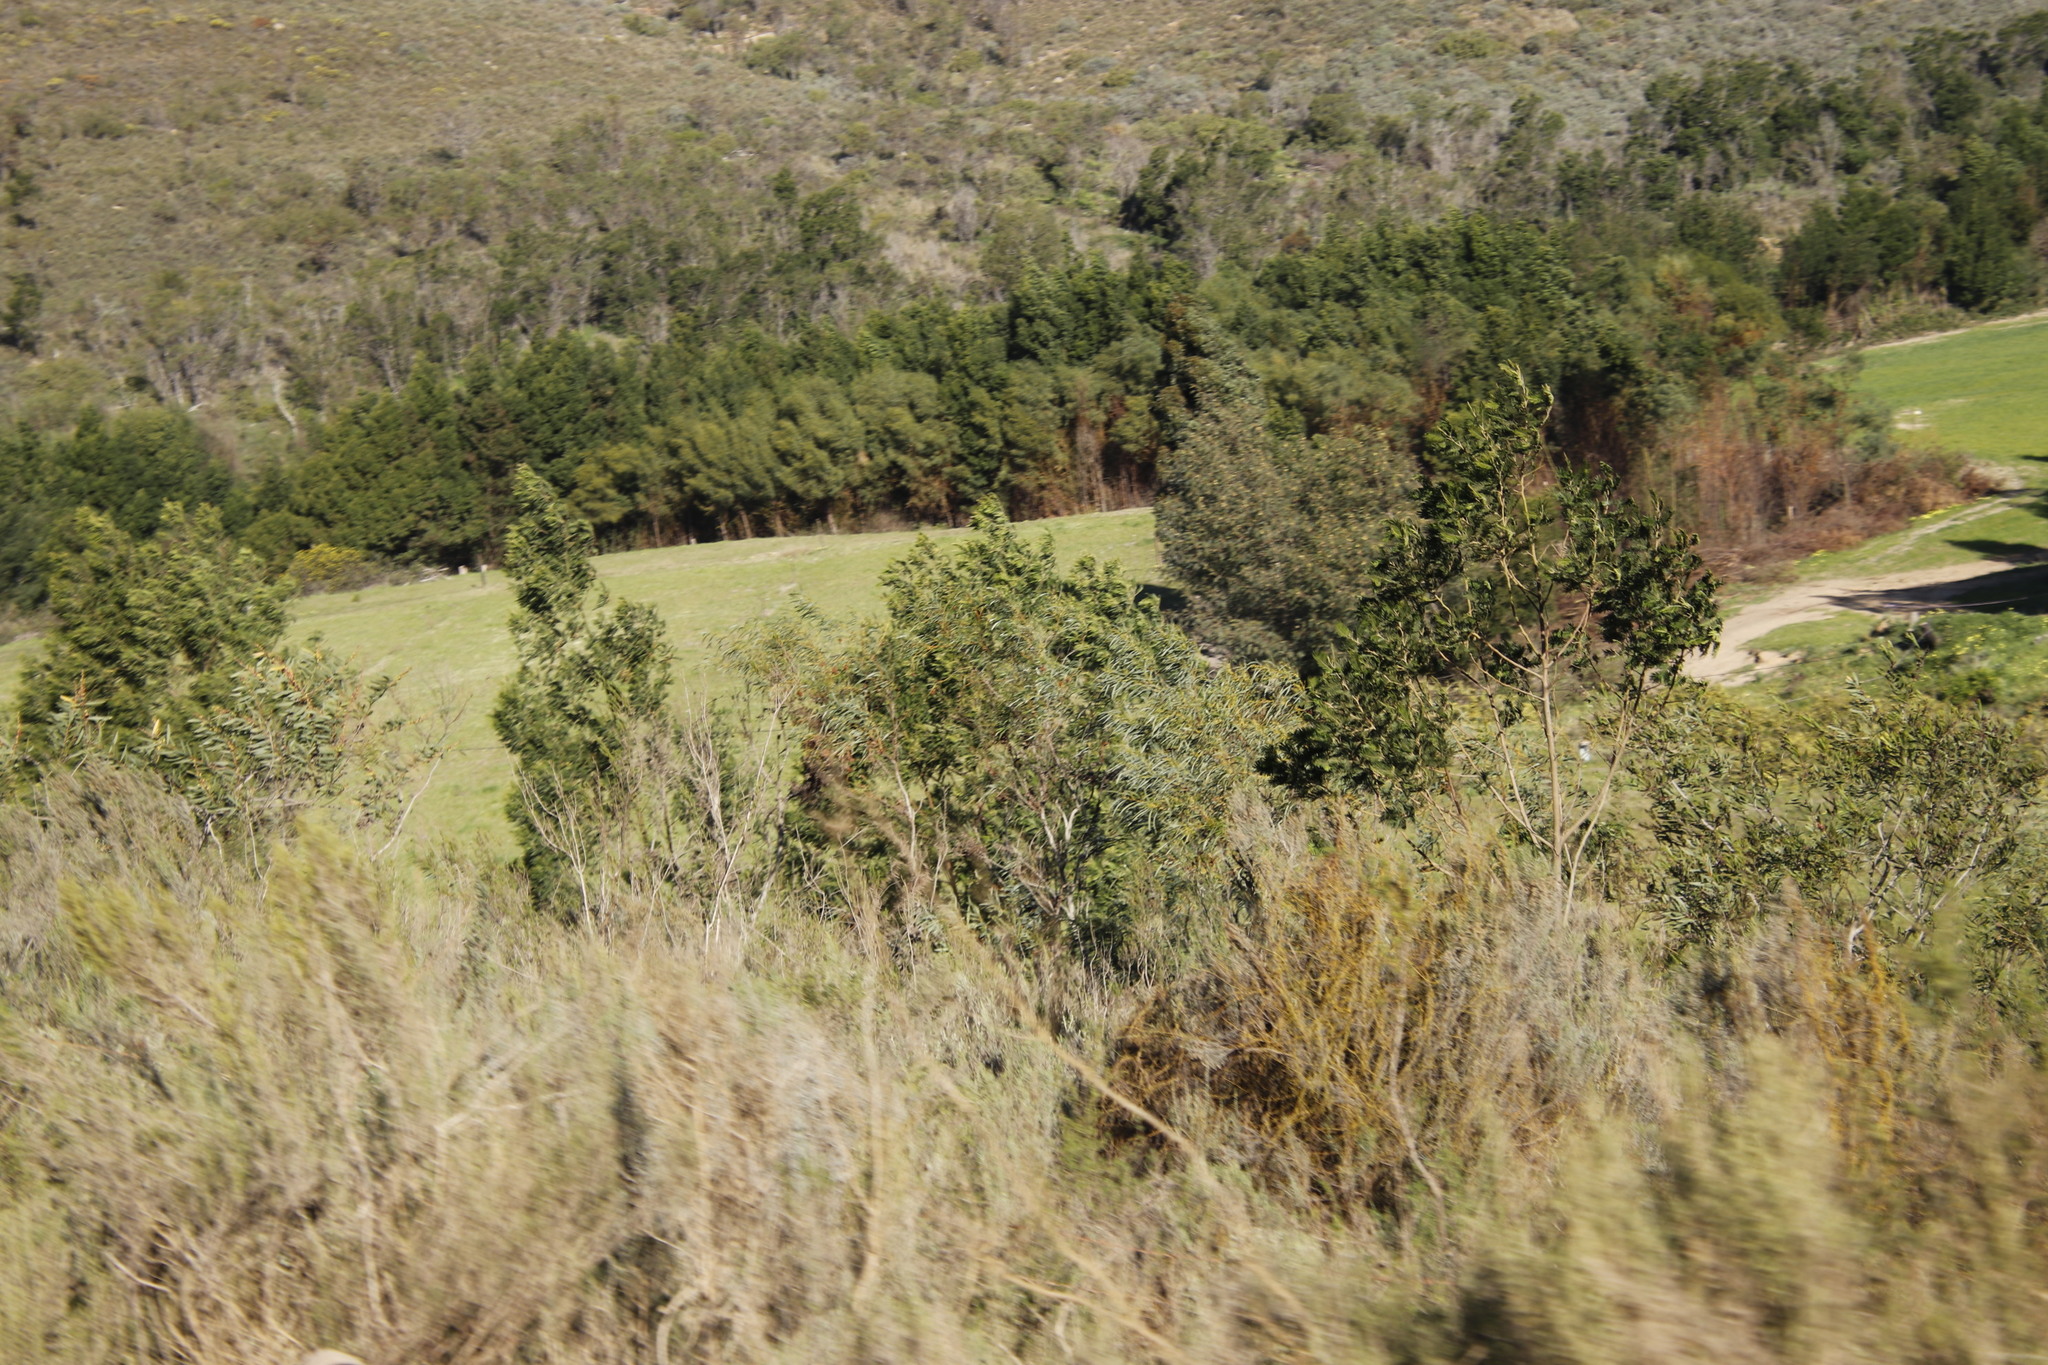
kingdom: Plantae
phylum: Tracheophyta
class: Magnoliopsida
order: Fabales
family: Fabaceae
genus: Acacia
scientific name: Acacia saligna
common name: Orange wattle
